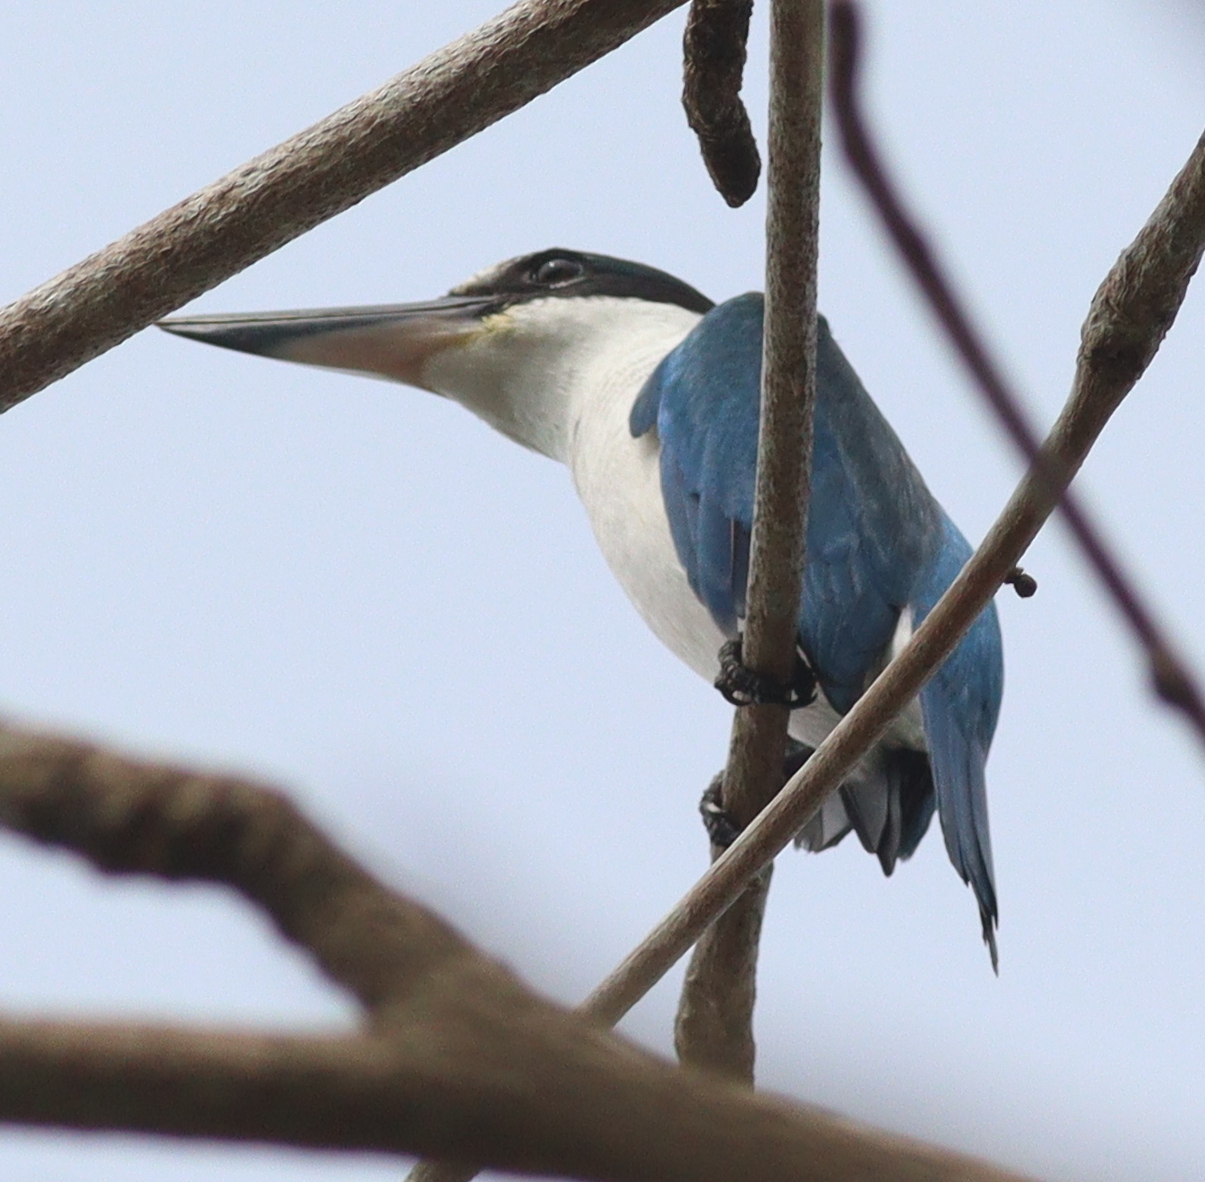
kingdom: Animalia
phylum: Chordata
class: Aves
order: Coraciiformes
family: Alcedinidae
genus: Todiramphus
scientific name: Todiramphus chloris
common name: Collared kingfisher
